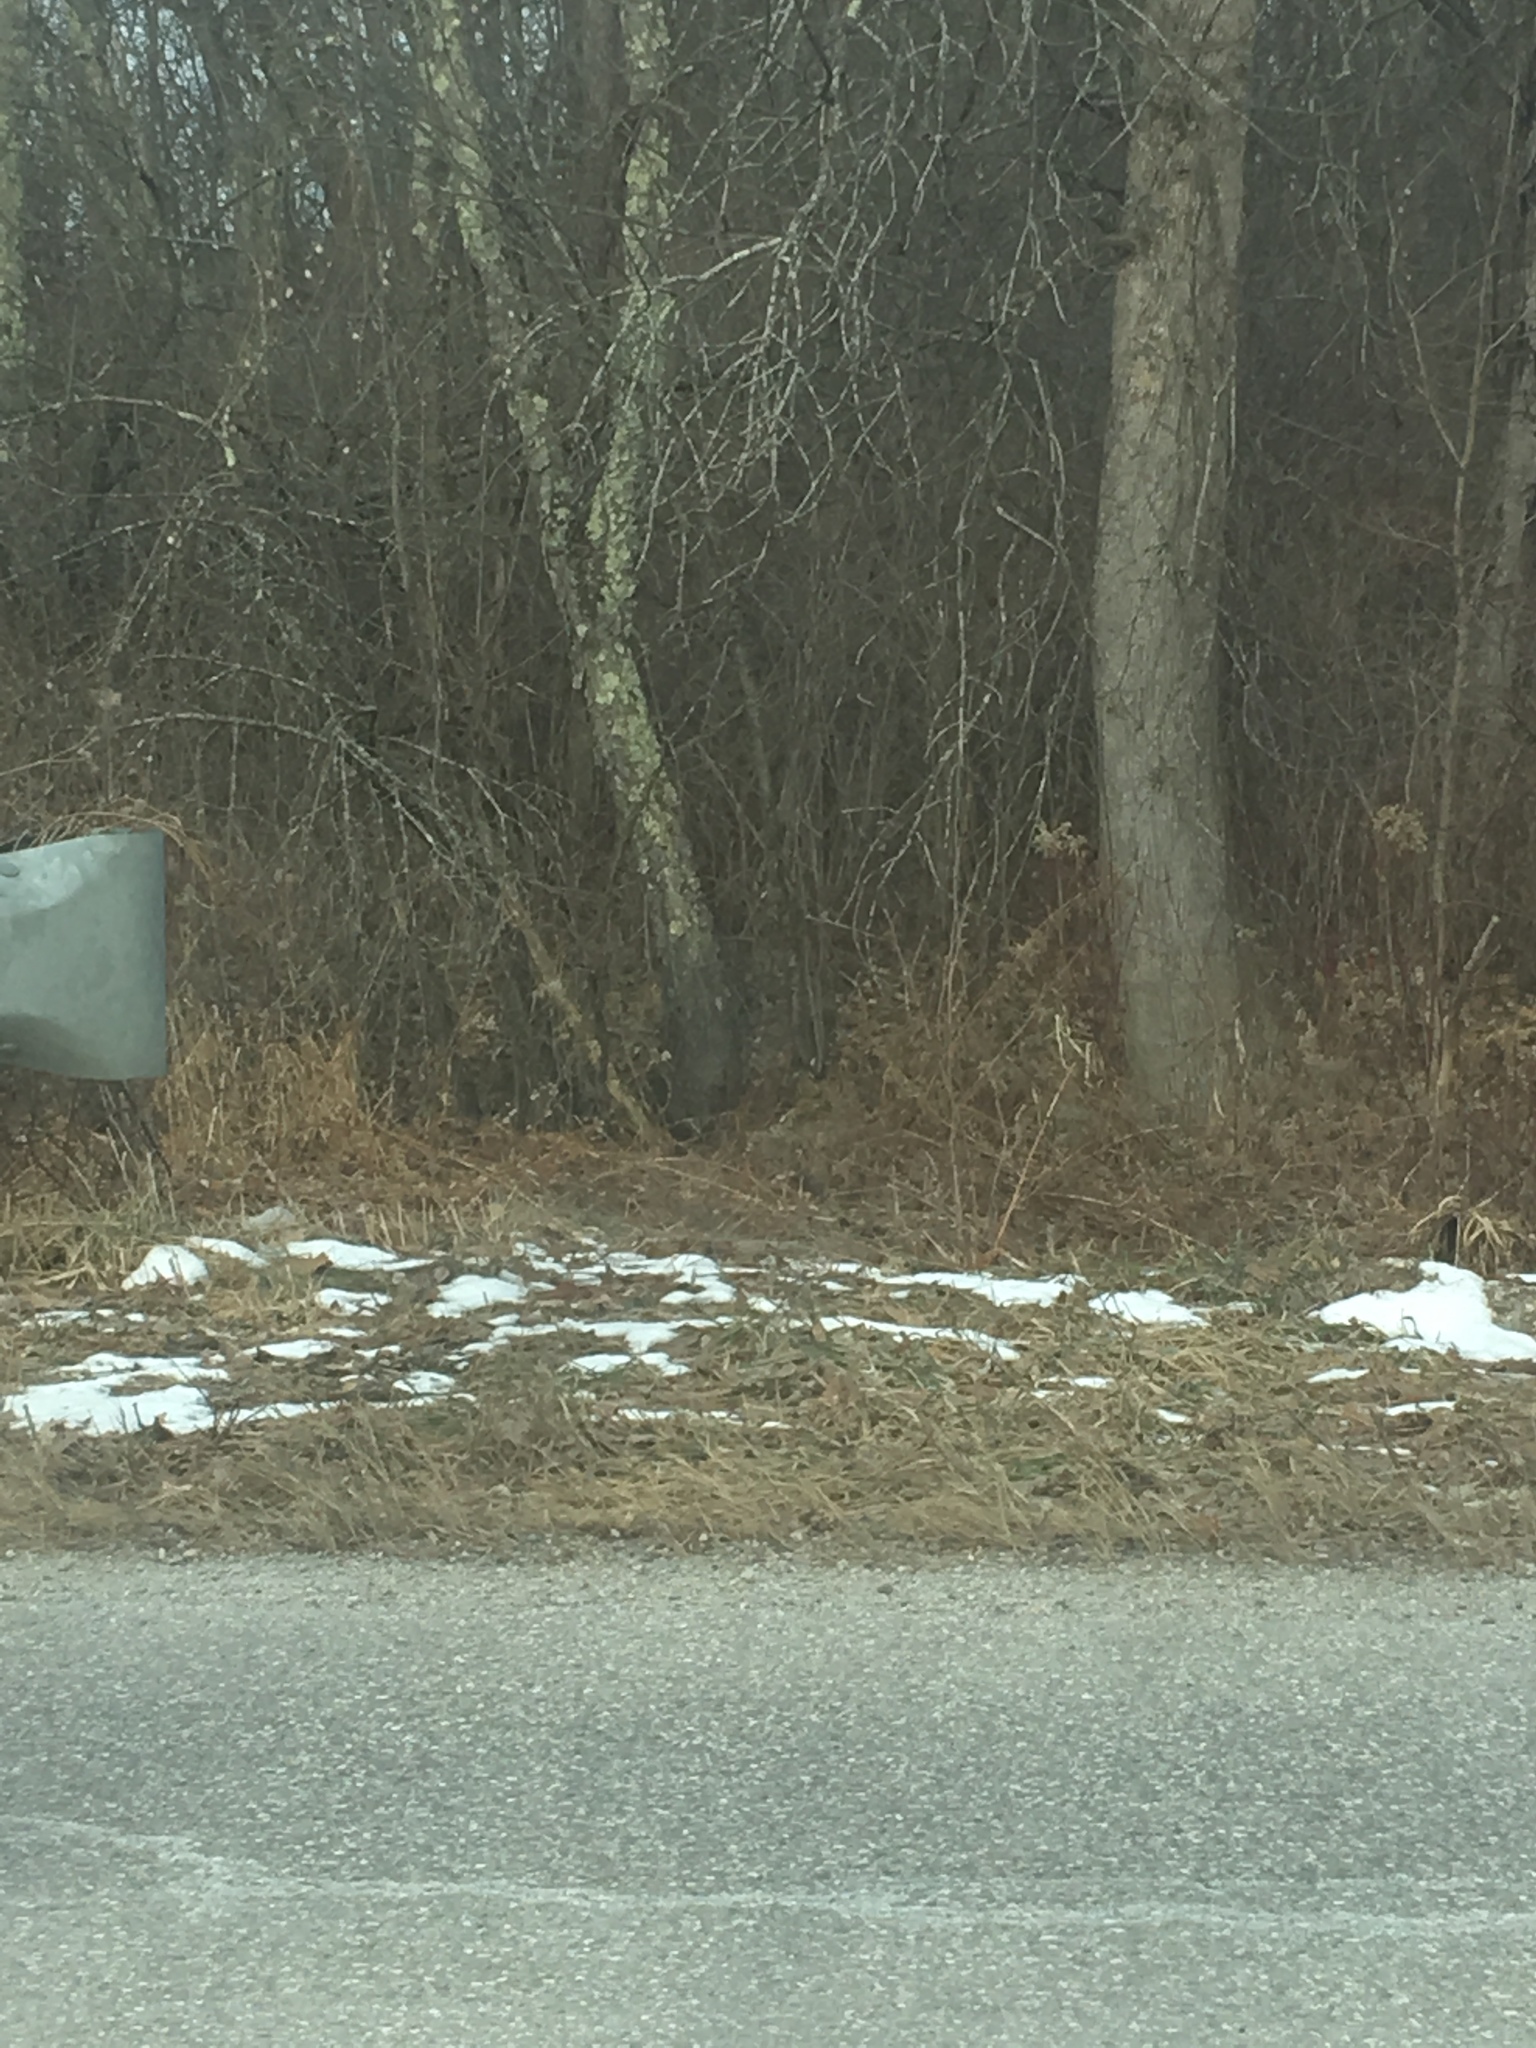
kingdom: Plantae
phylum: Tracheophyta
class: Magnoliopsida
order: Rosales
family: Rosaceae
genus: Prunus
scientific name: Prunus serotina
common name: Black cherry
